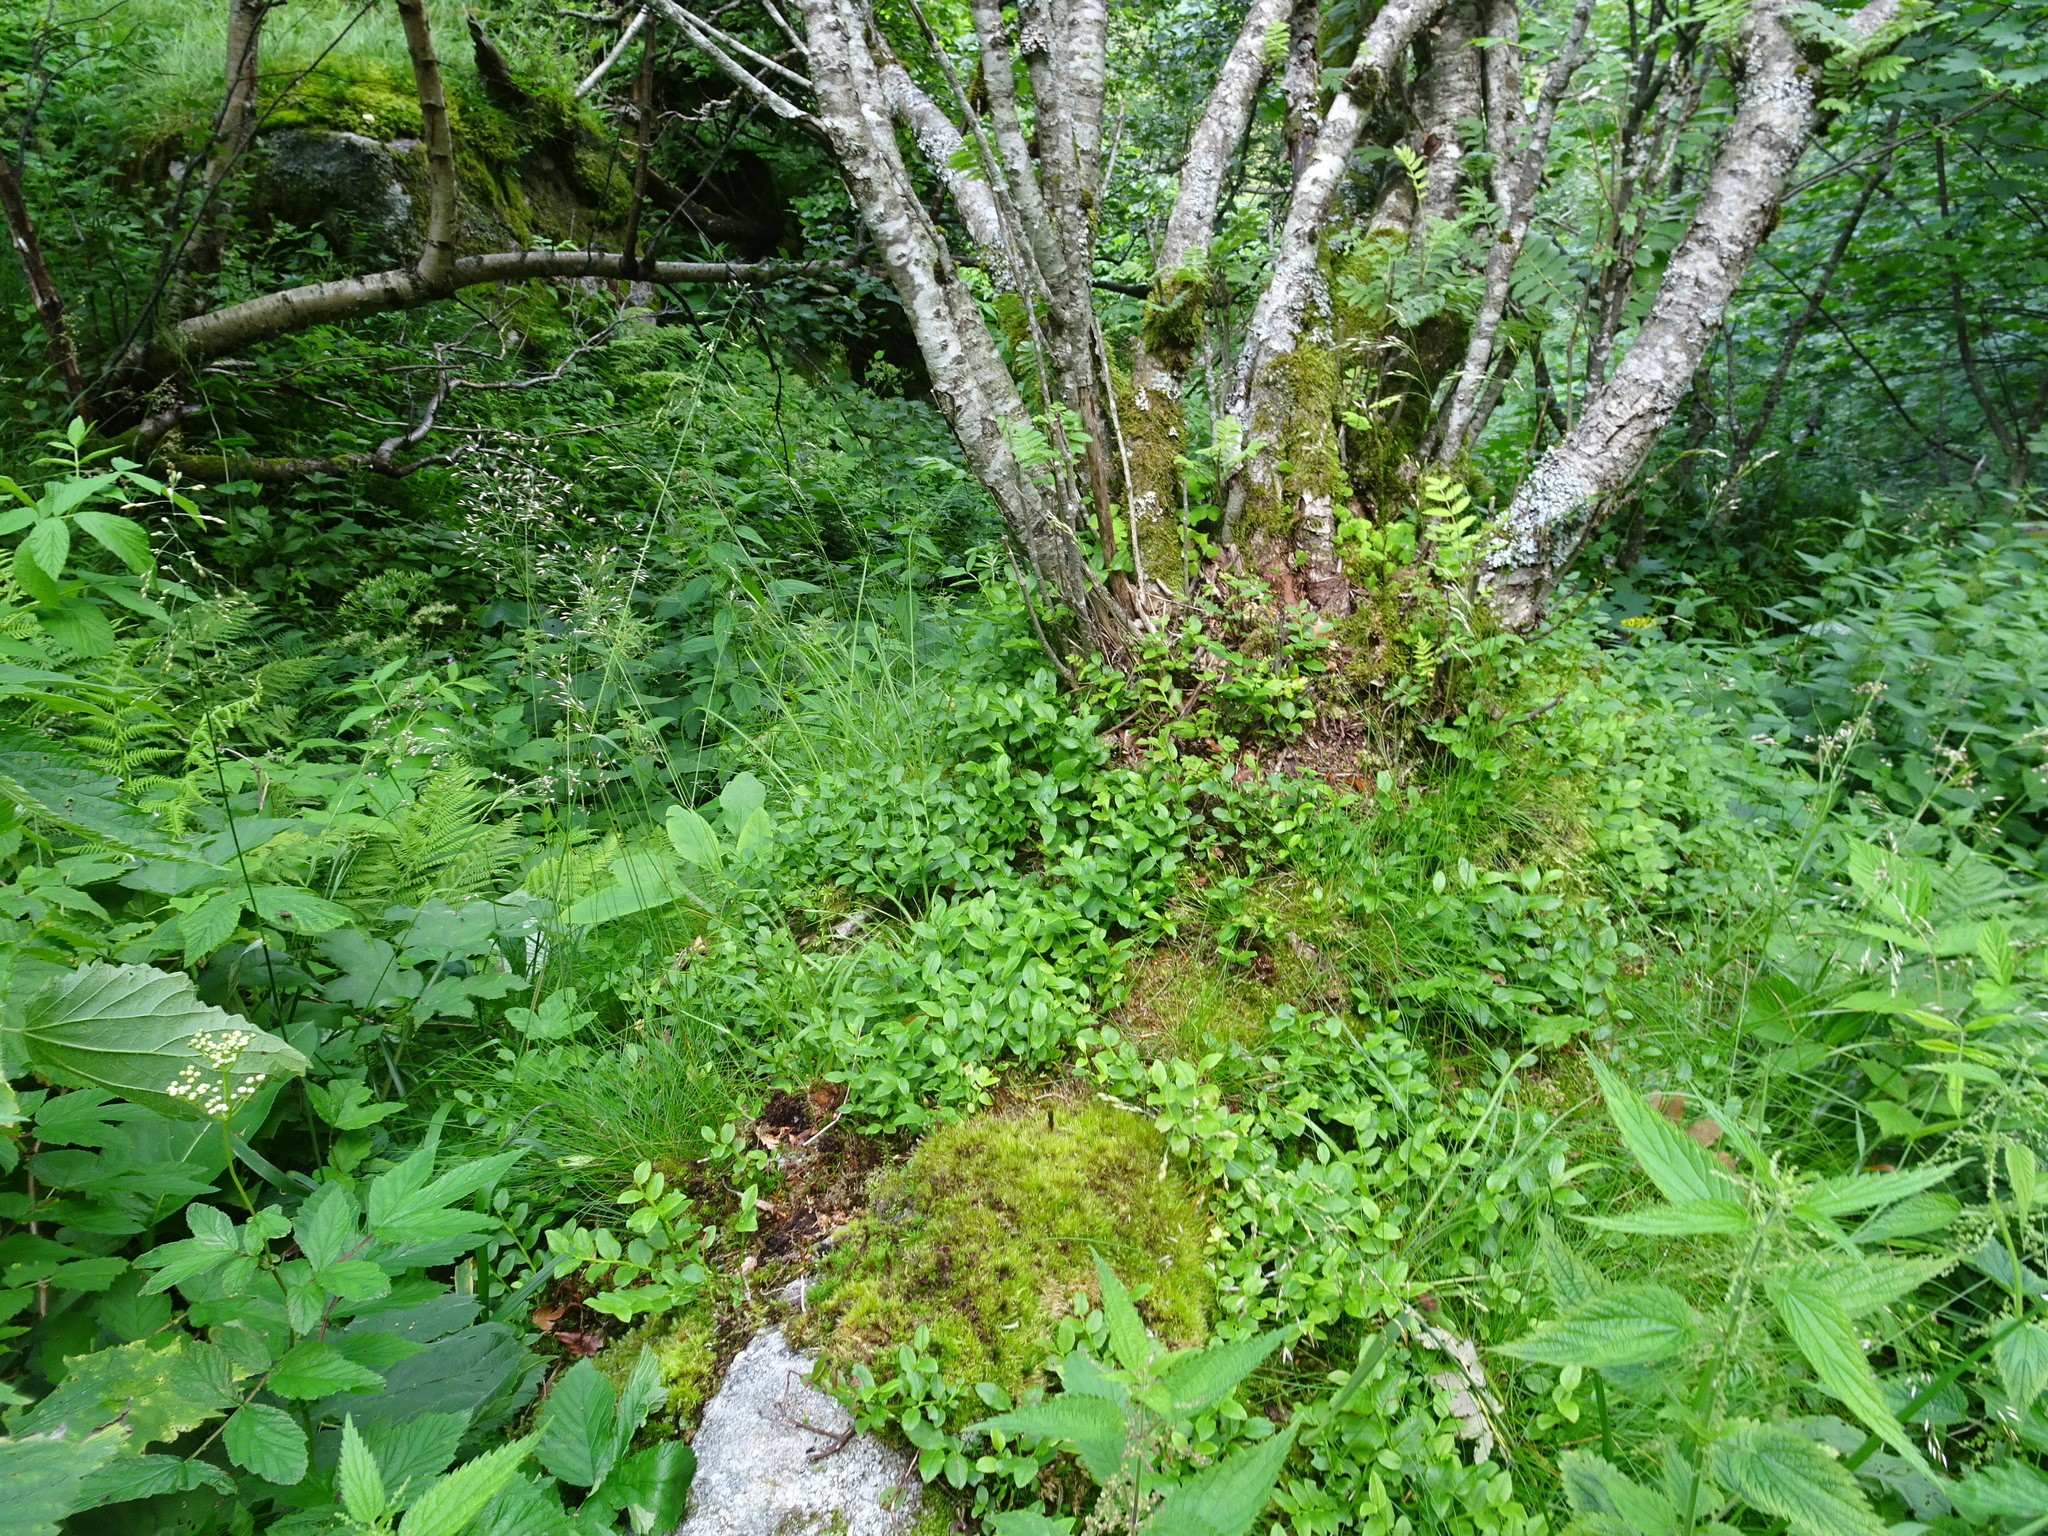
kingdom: Plantae
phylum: Tracheophyta
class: Magnoliopsida
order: Ericales
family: Ericaceae
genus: Vaccinium
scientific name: Vaccinium myrtillus
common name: Bilberry
